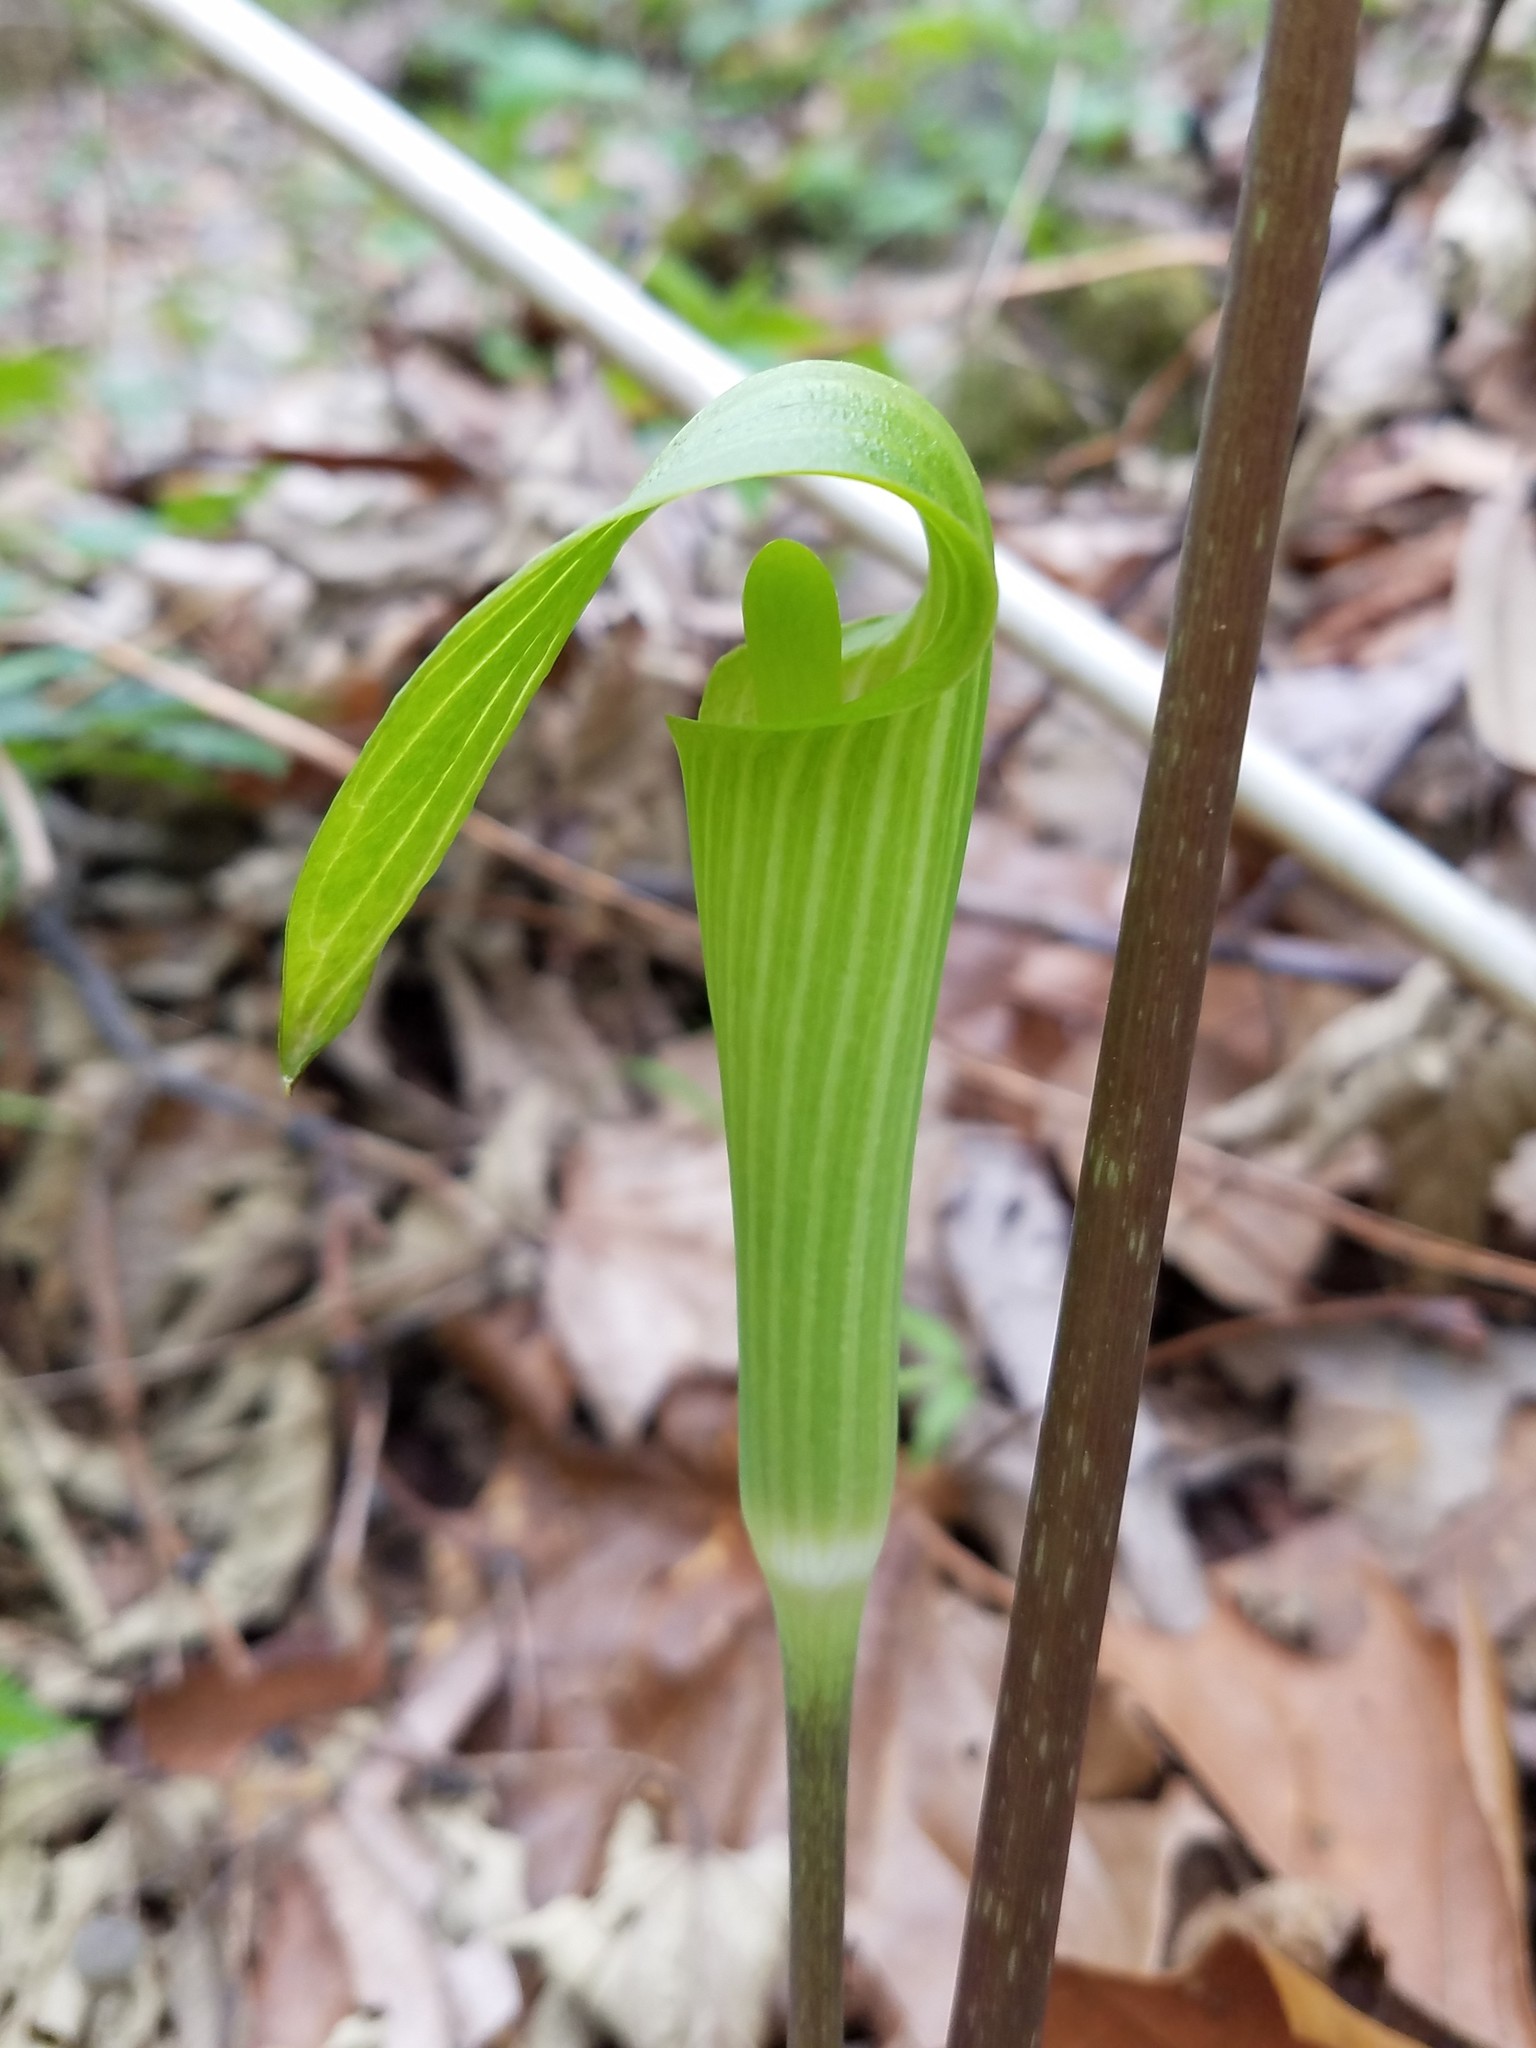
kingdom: Plantae
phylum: Tracheophyta
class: Liliopsida
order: Alismatales
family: Araceae
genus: Arisaema
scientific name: Arisaema triphyllum
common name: Jack-in-the-pulpit
